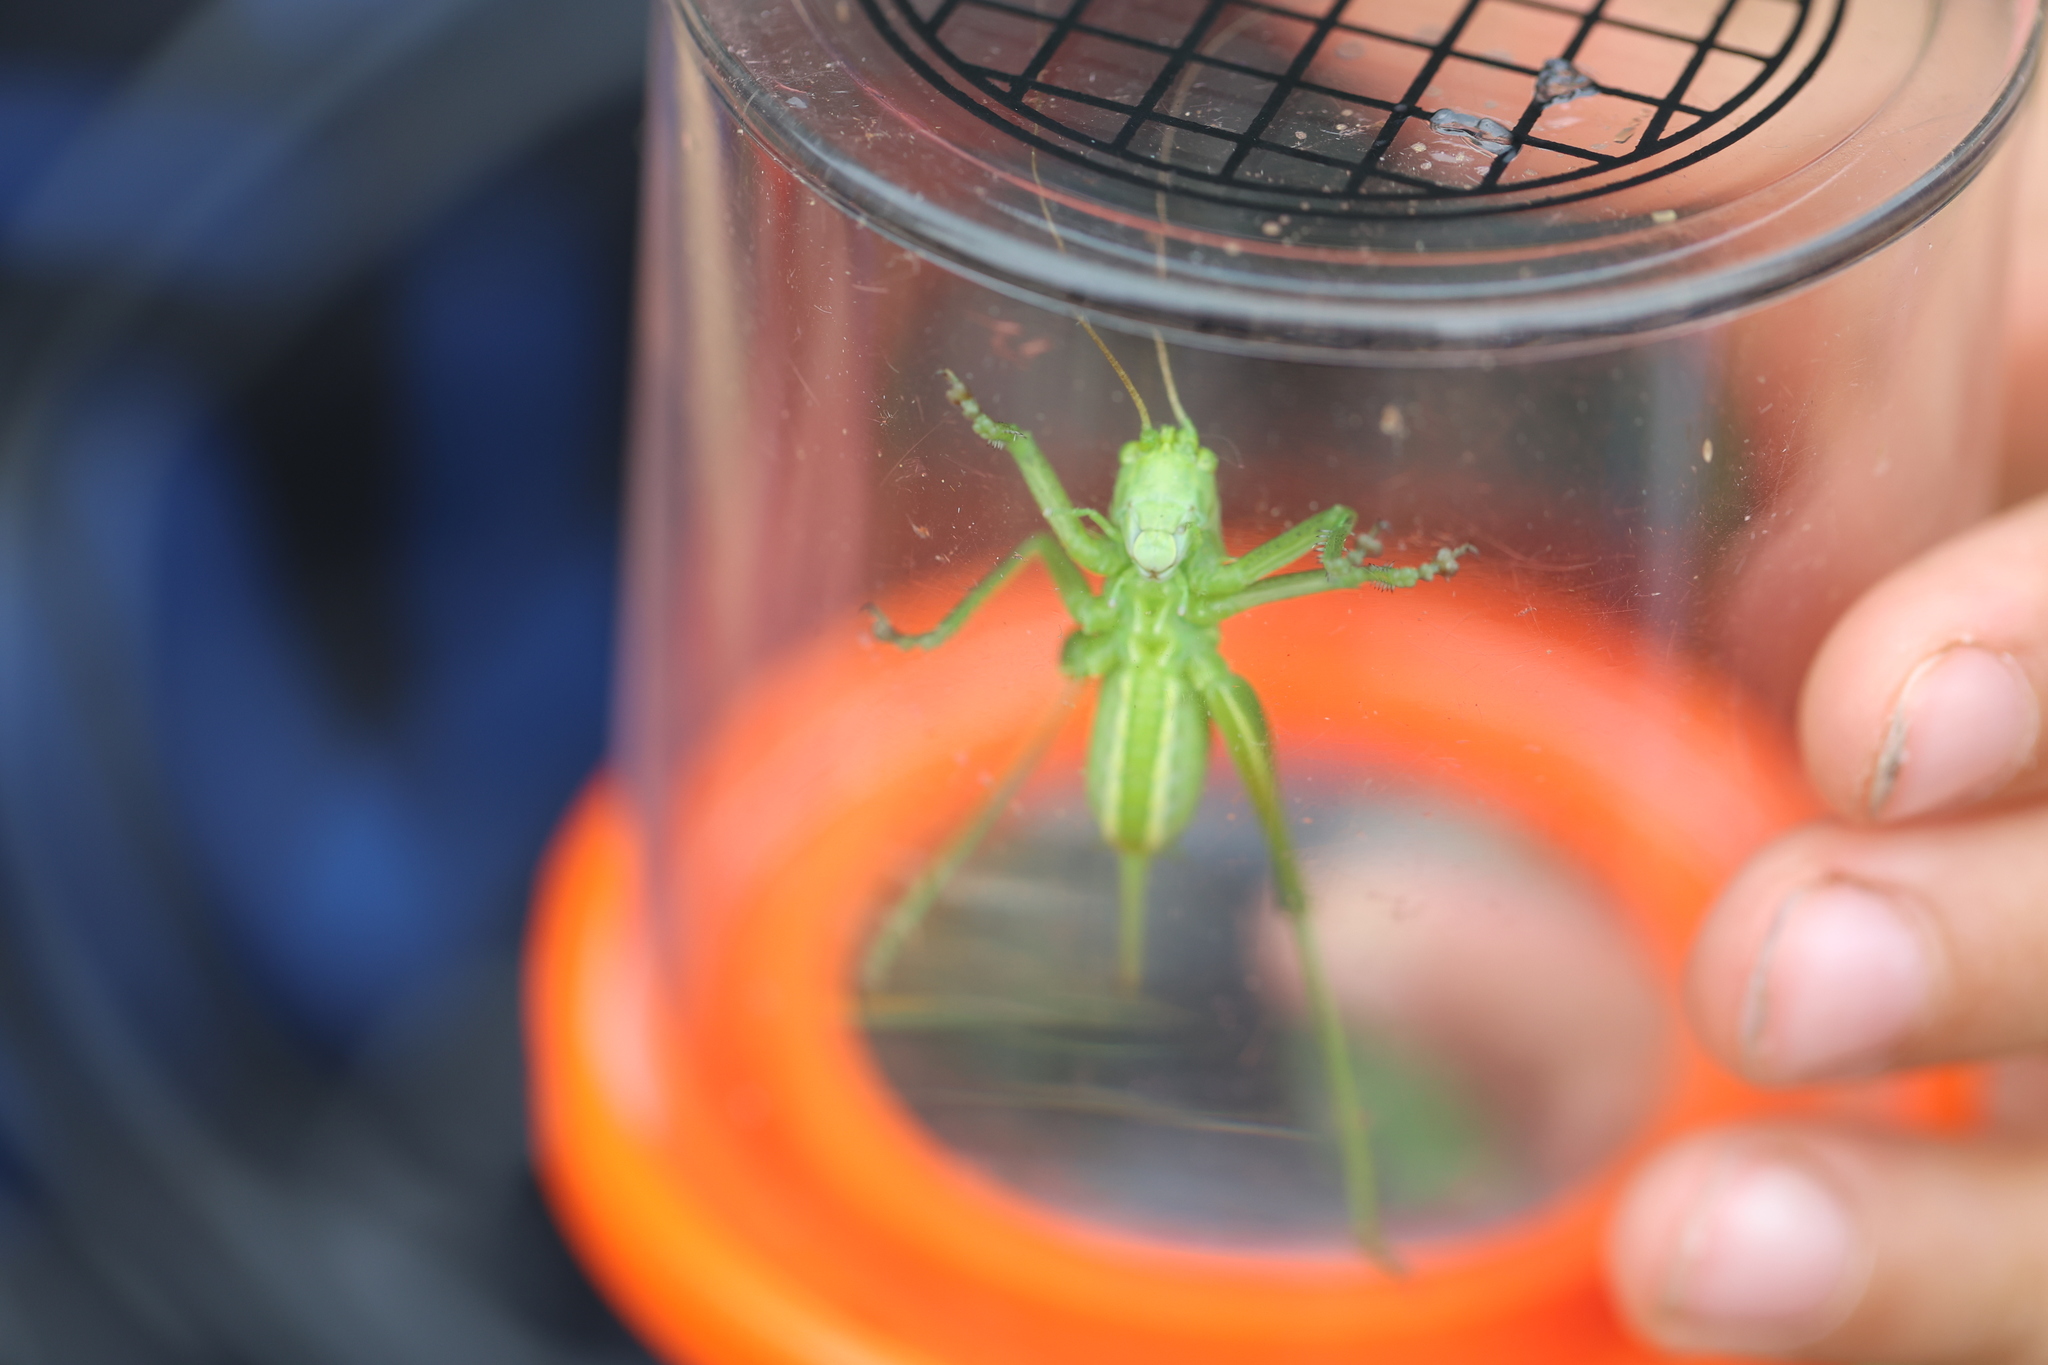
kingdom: Animalia
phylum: Arthropoda
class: Insecta
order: Orthoptera
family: Tettigoniidae
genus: Tettigonia
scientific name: Tettigonia viridissima
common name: Great green bush-cricket
